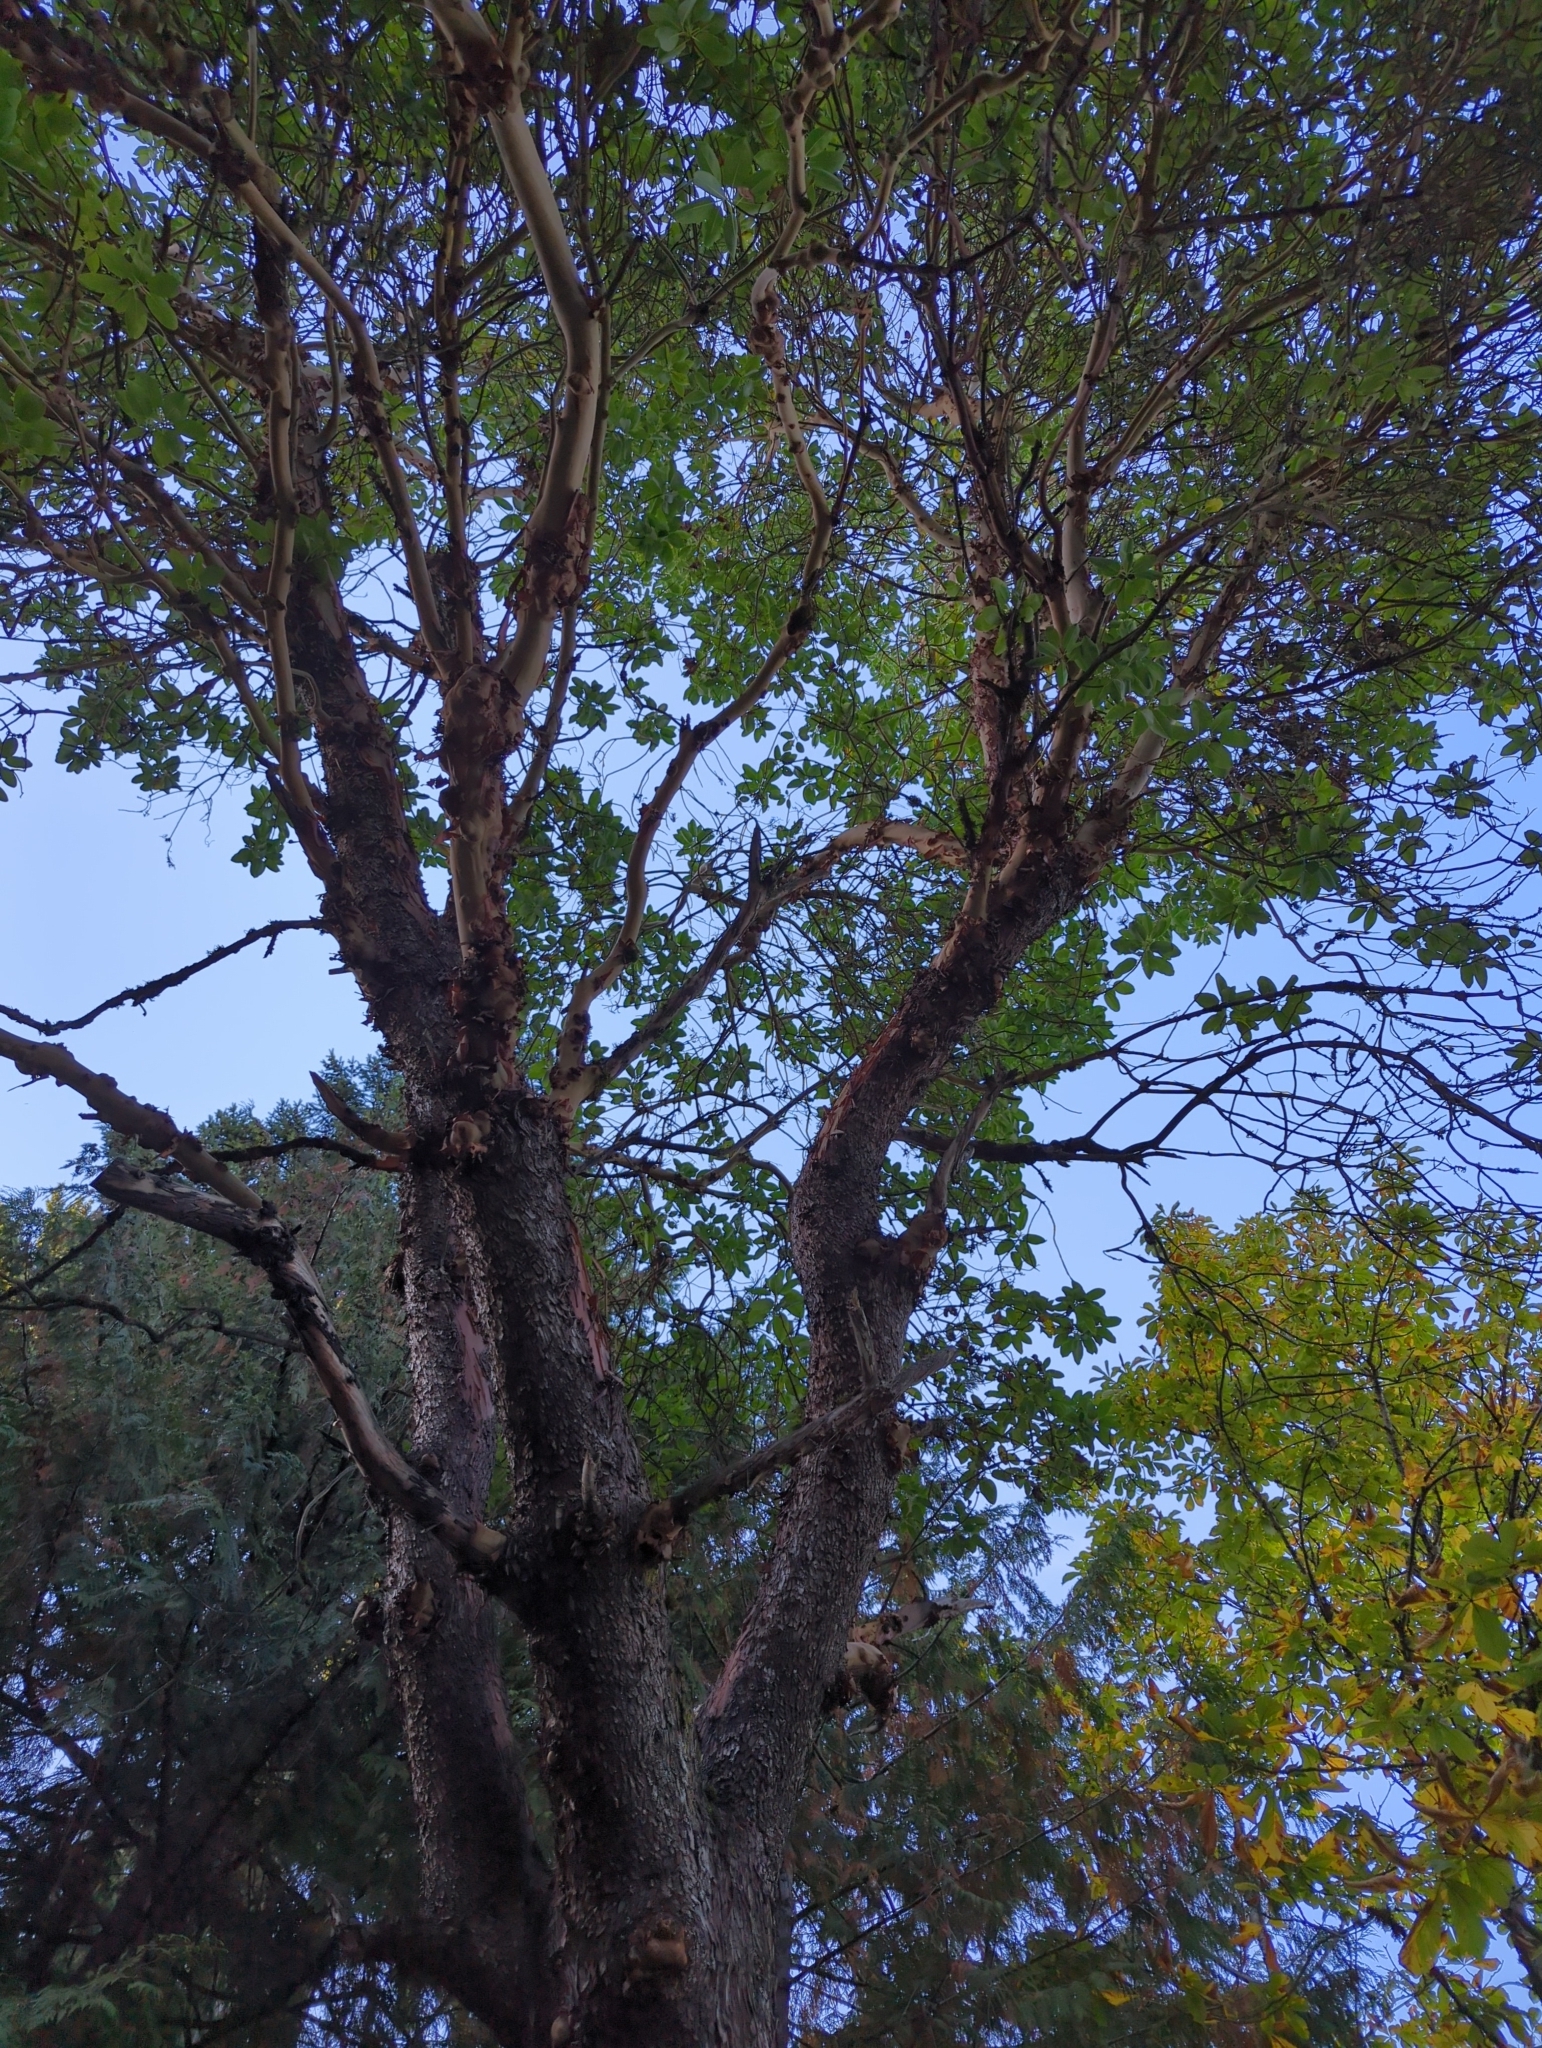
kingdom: Plantae
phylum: Tracheophyta
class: Magnoliopsida
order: Ericales
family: Ericaceae
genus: Arbutus
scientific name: Arbutus menziesii
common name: Pacific madrone
